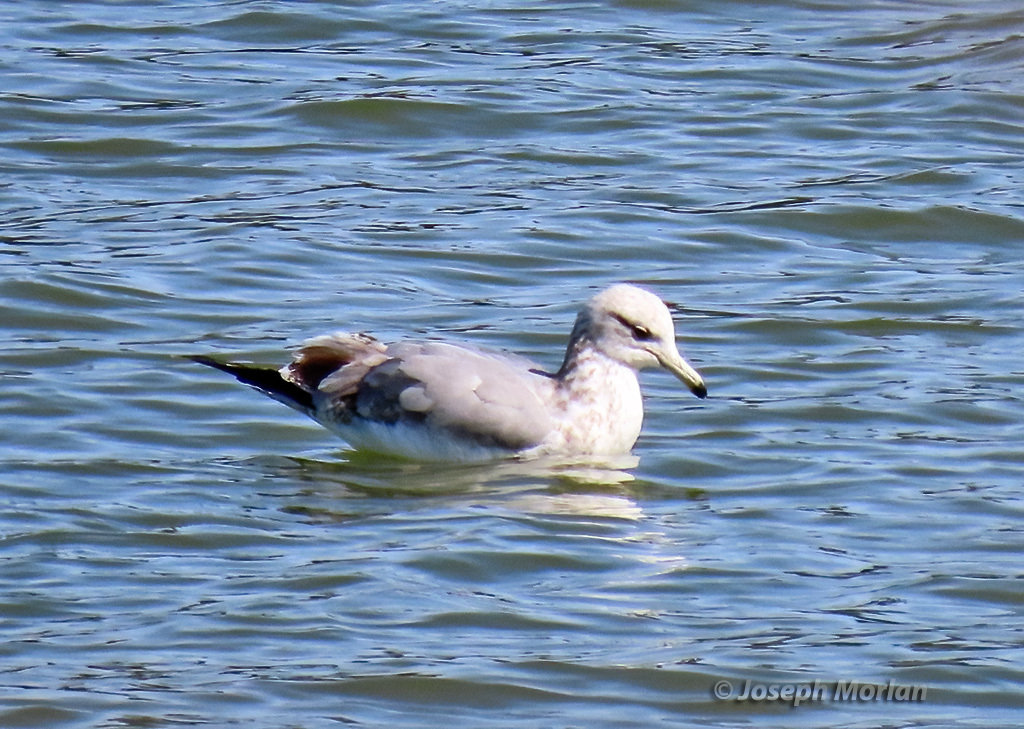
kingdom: Animalia
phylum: Chordata
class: Aves
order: Charadriiformes
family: Laridae
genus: Larus
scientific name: Larus californicus
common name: California gull
